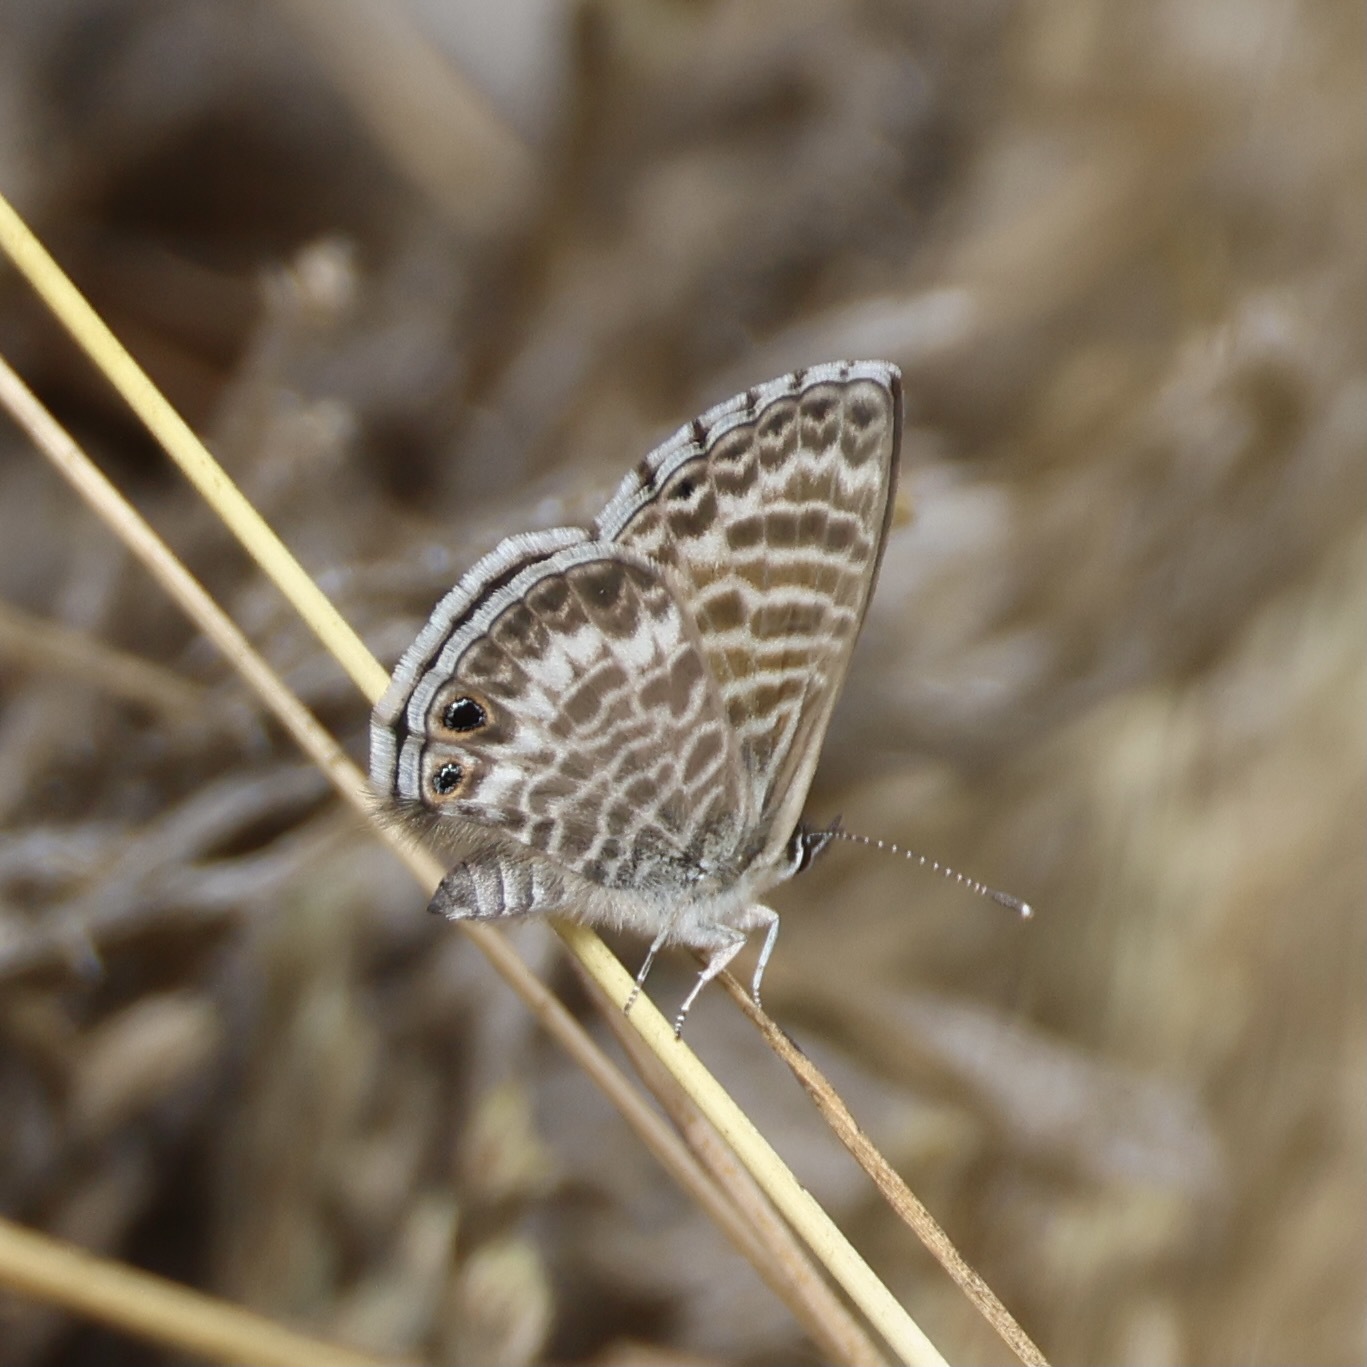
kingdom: Animalia
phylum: Arthropoda
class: Insecta
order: Lepidoptera
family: Lycaenidae
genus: Leptotes
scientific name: Leptotes marina
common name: Marine blue
